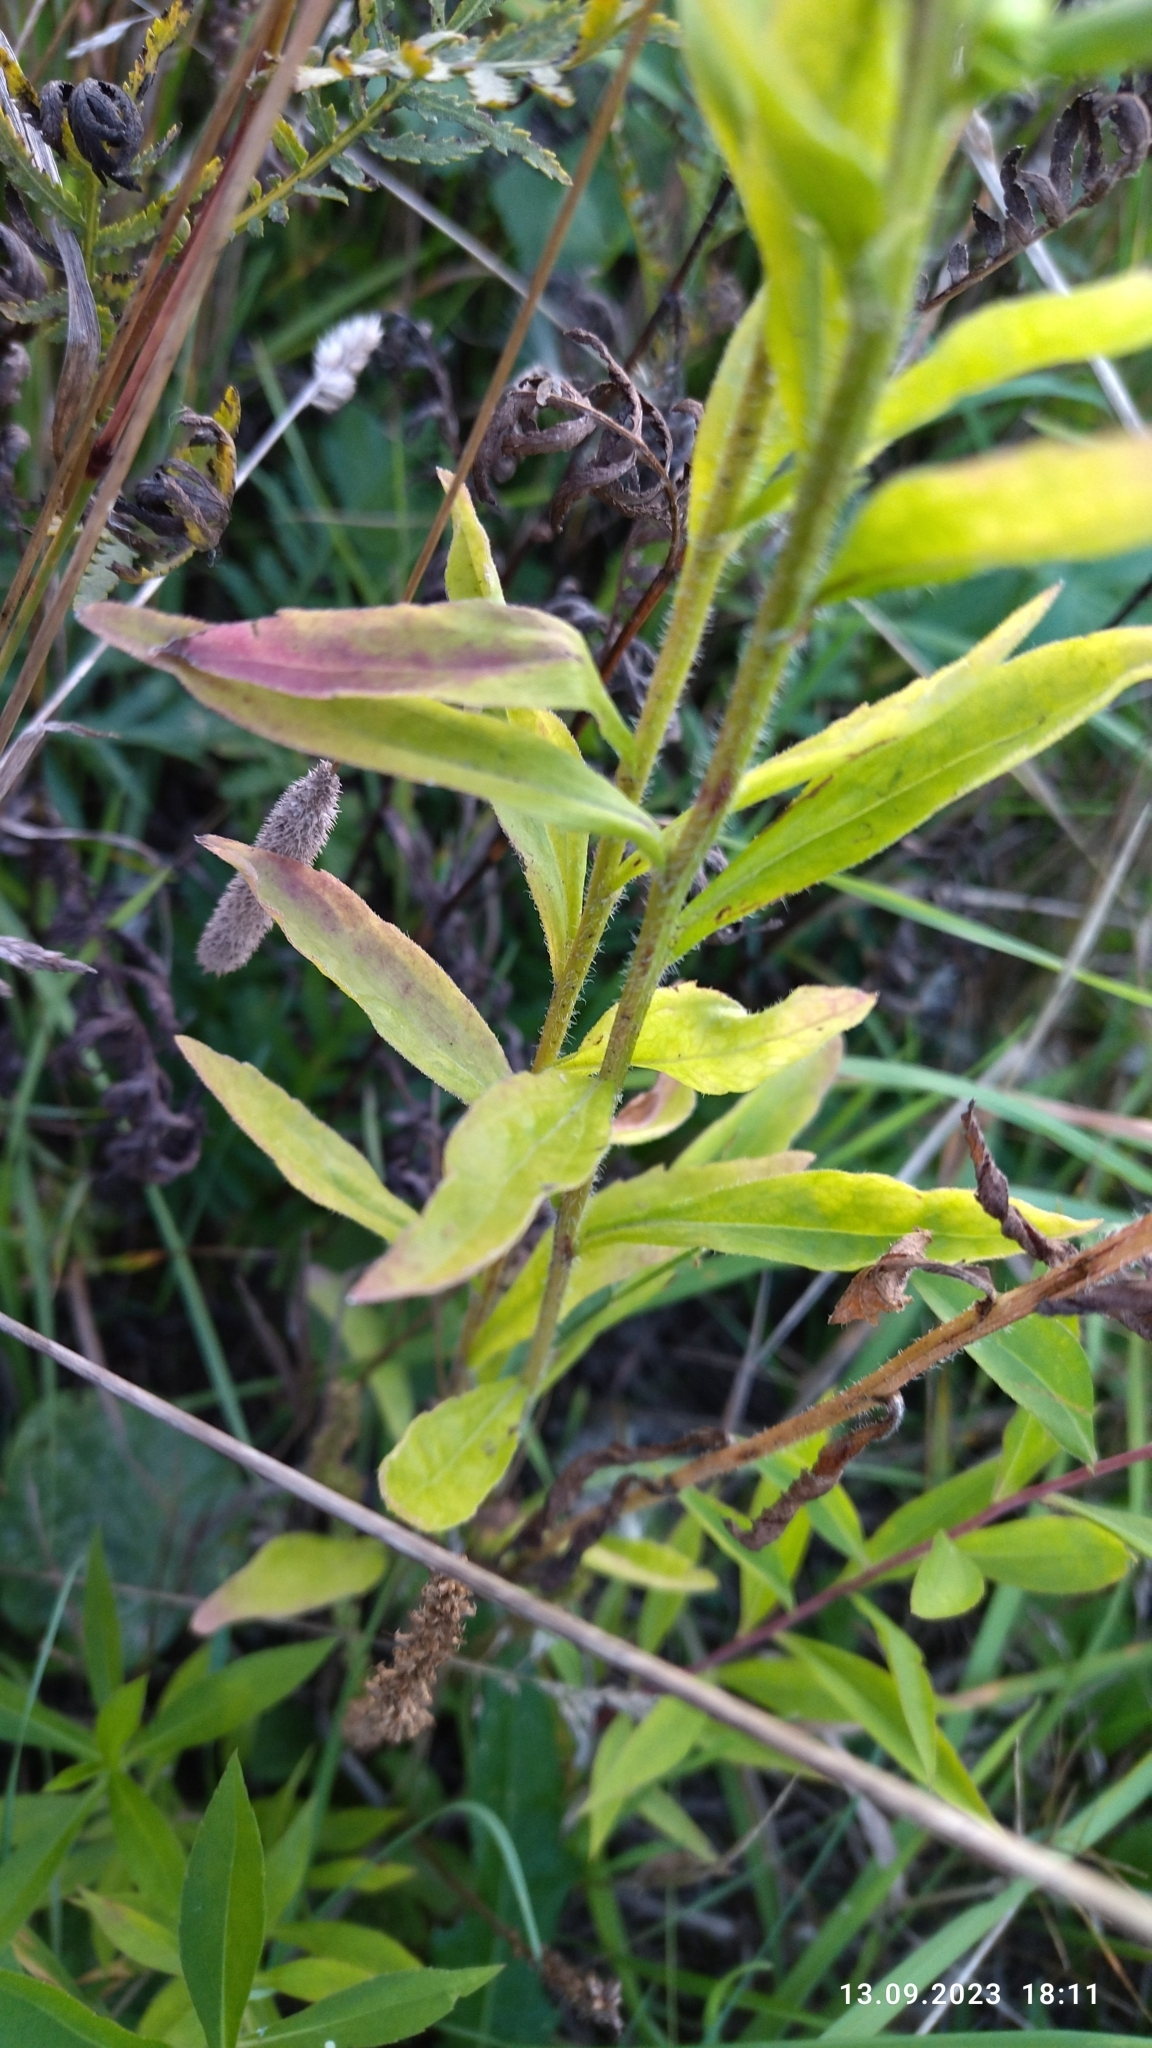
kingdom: Plantae
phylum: Tracheophyta
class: Magnoliopsida
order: Asterales
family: Asteraceae
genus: Erigeron
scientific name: Erigeron annuus
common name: Tall fleabane
